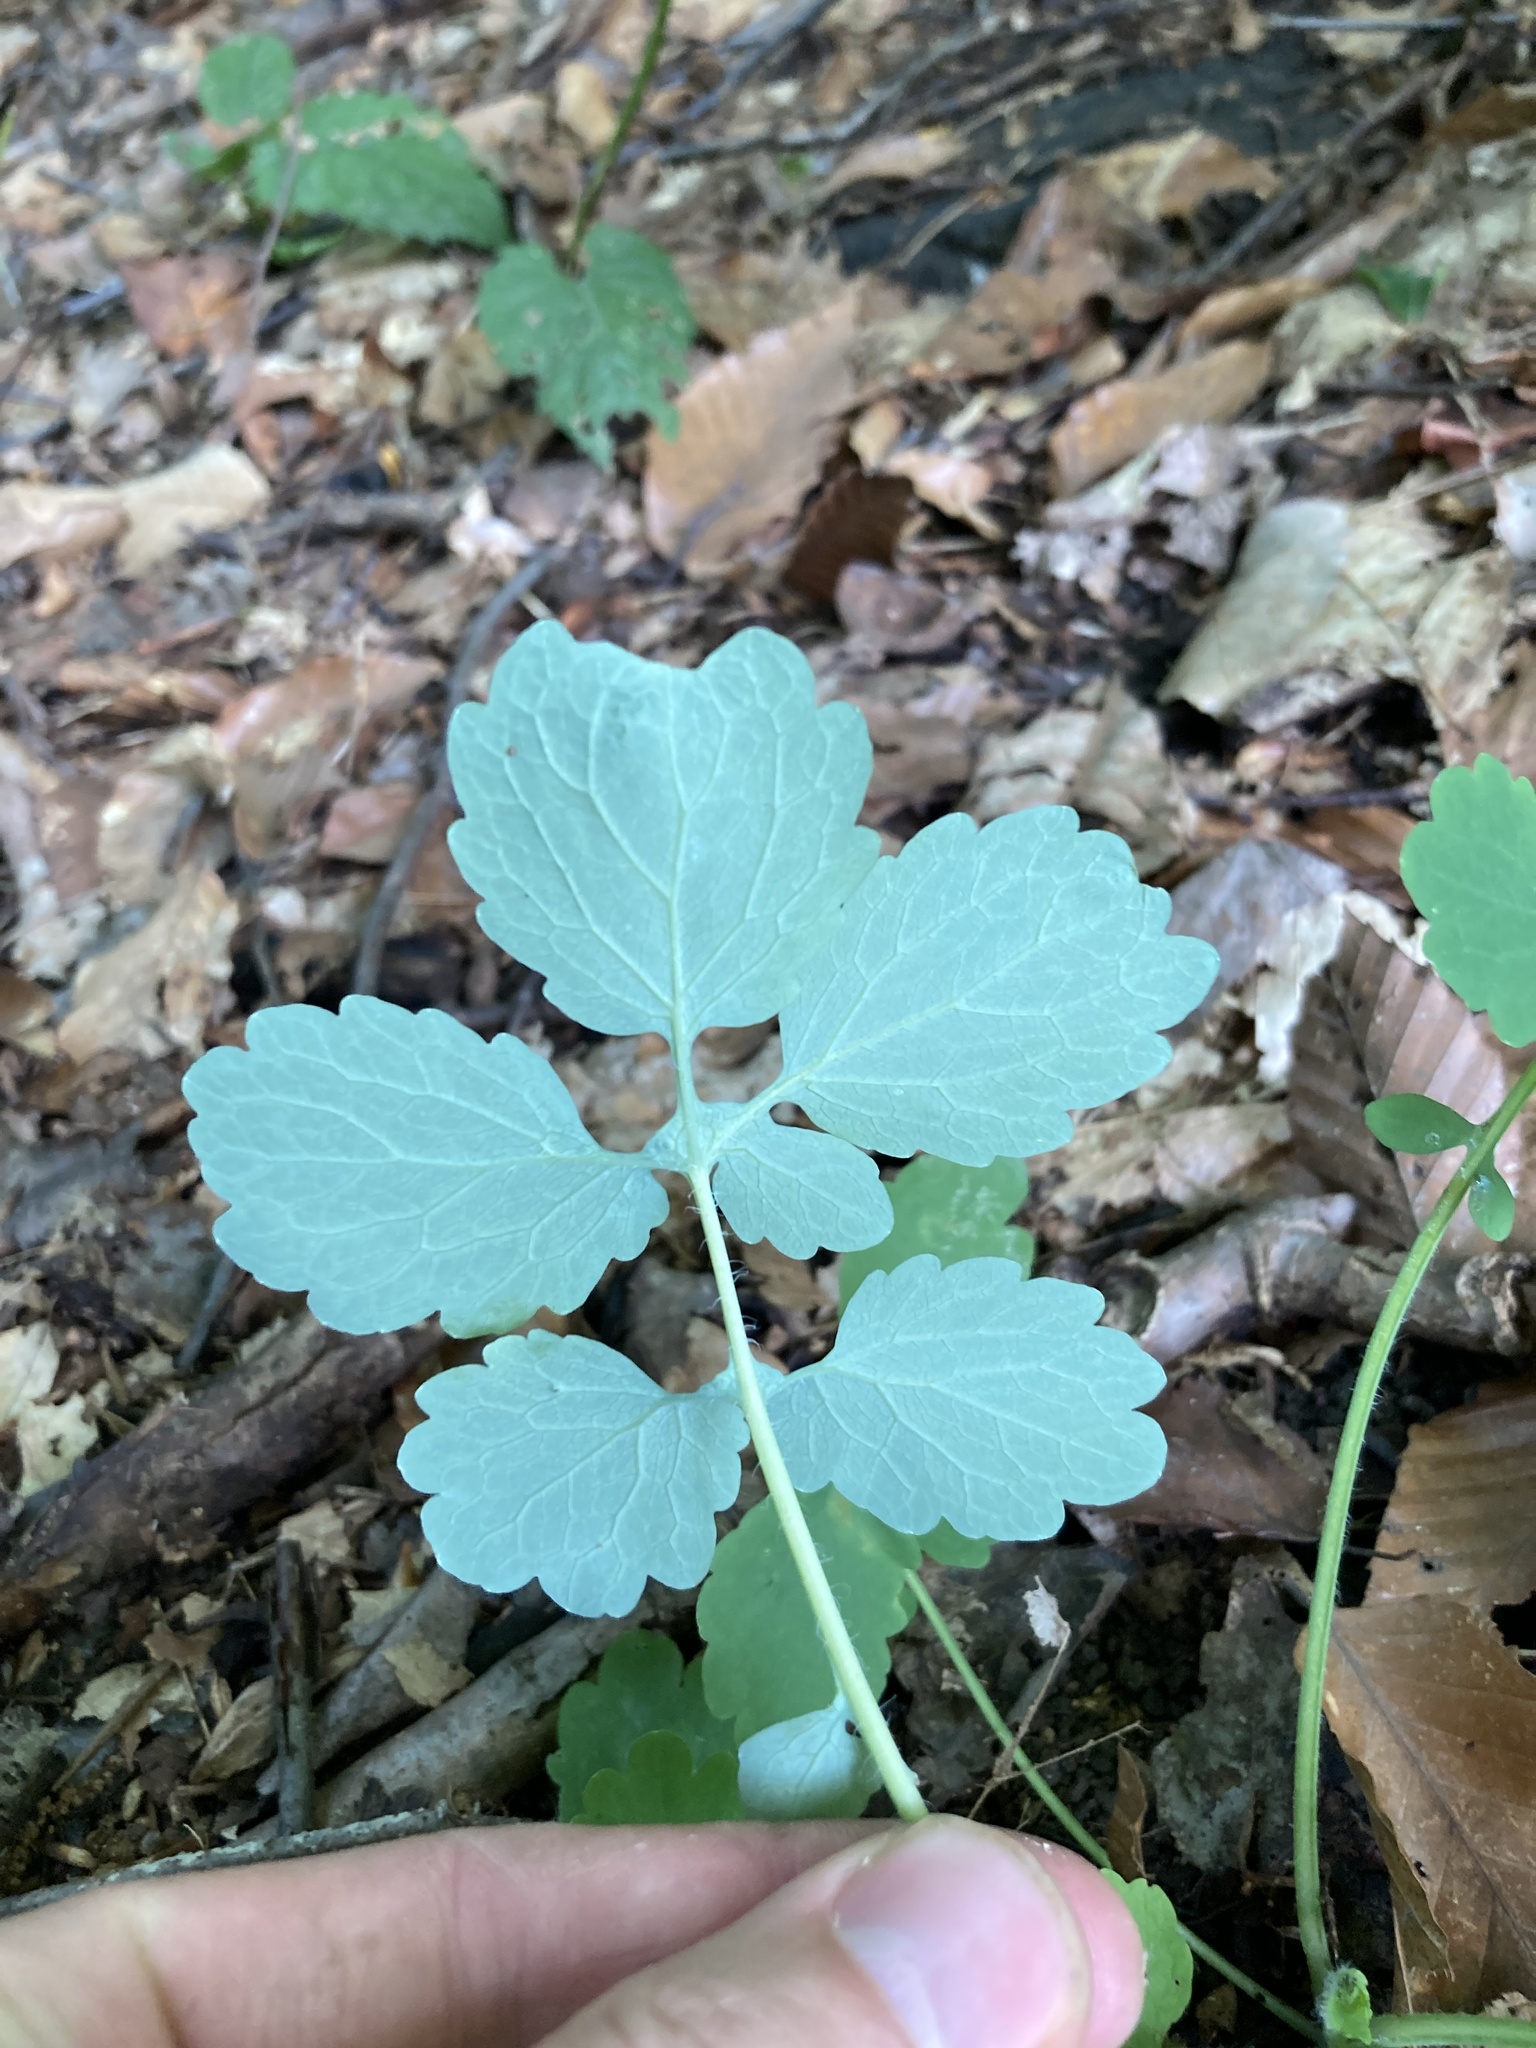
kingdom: Plantae
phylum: Tracheophyta
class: Magnoliopsida
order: Ranunculales
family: Papaveraceae
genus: Chelidonium
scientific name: Chelidonium majus
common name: Greater celandine
